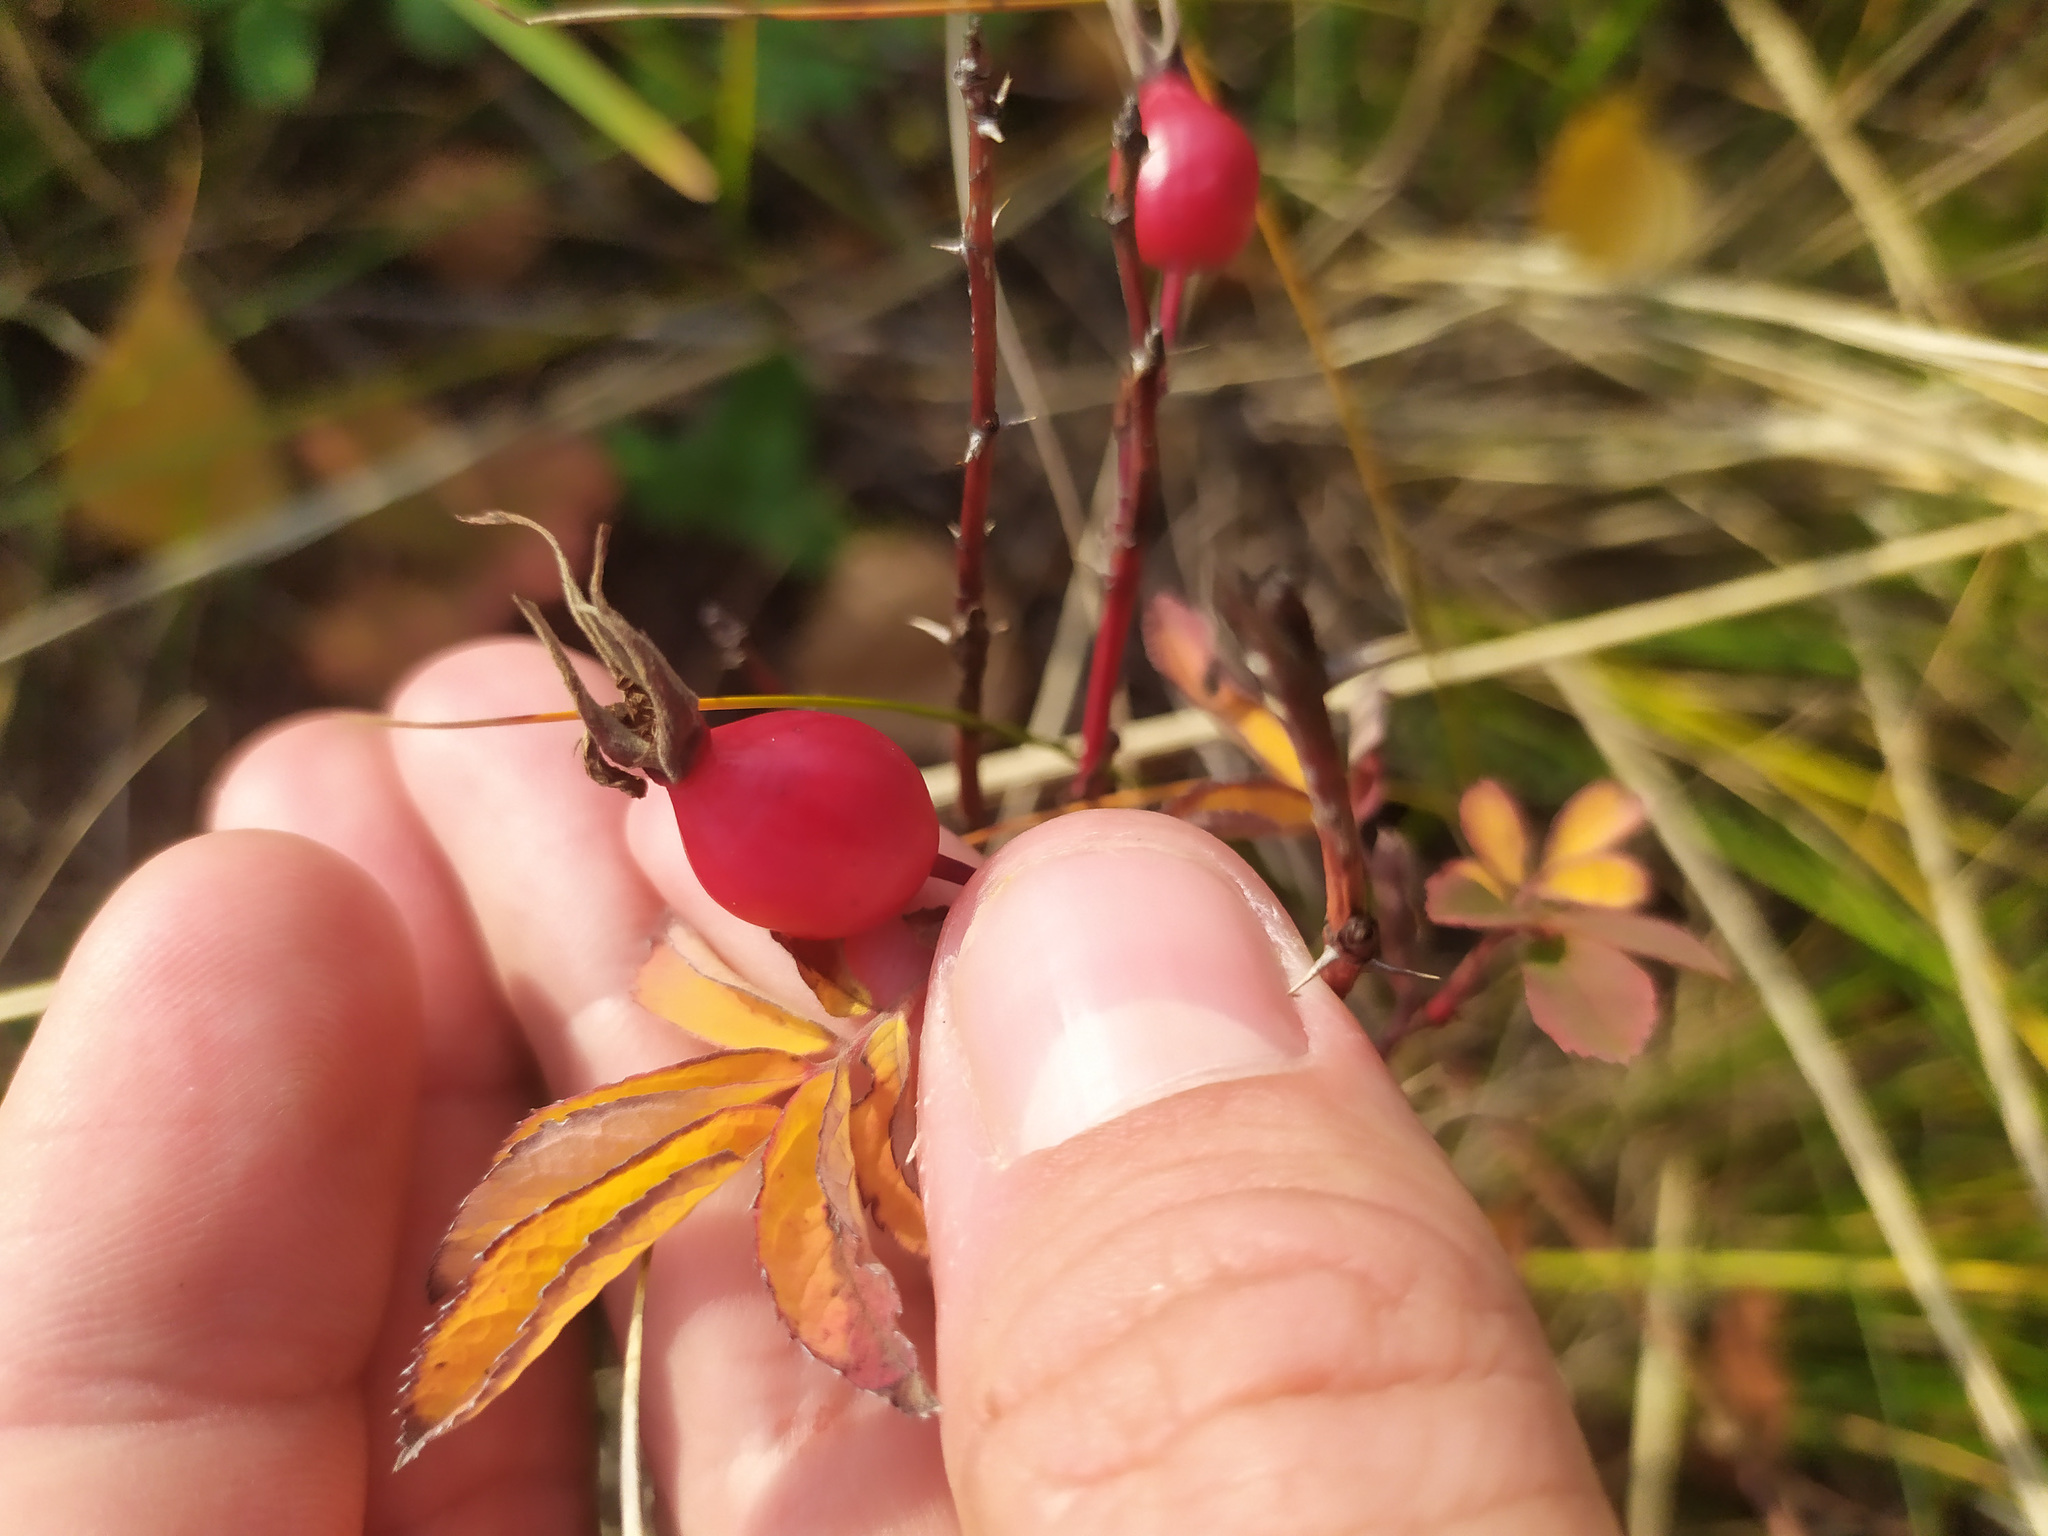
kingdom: Plantae
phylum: Tracheophyta
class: Magnoliopsida
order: Rosales
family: Rosaceae
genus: Rosa
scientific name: Rosa majalis
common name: Cinnamon rose
